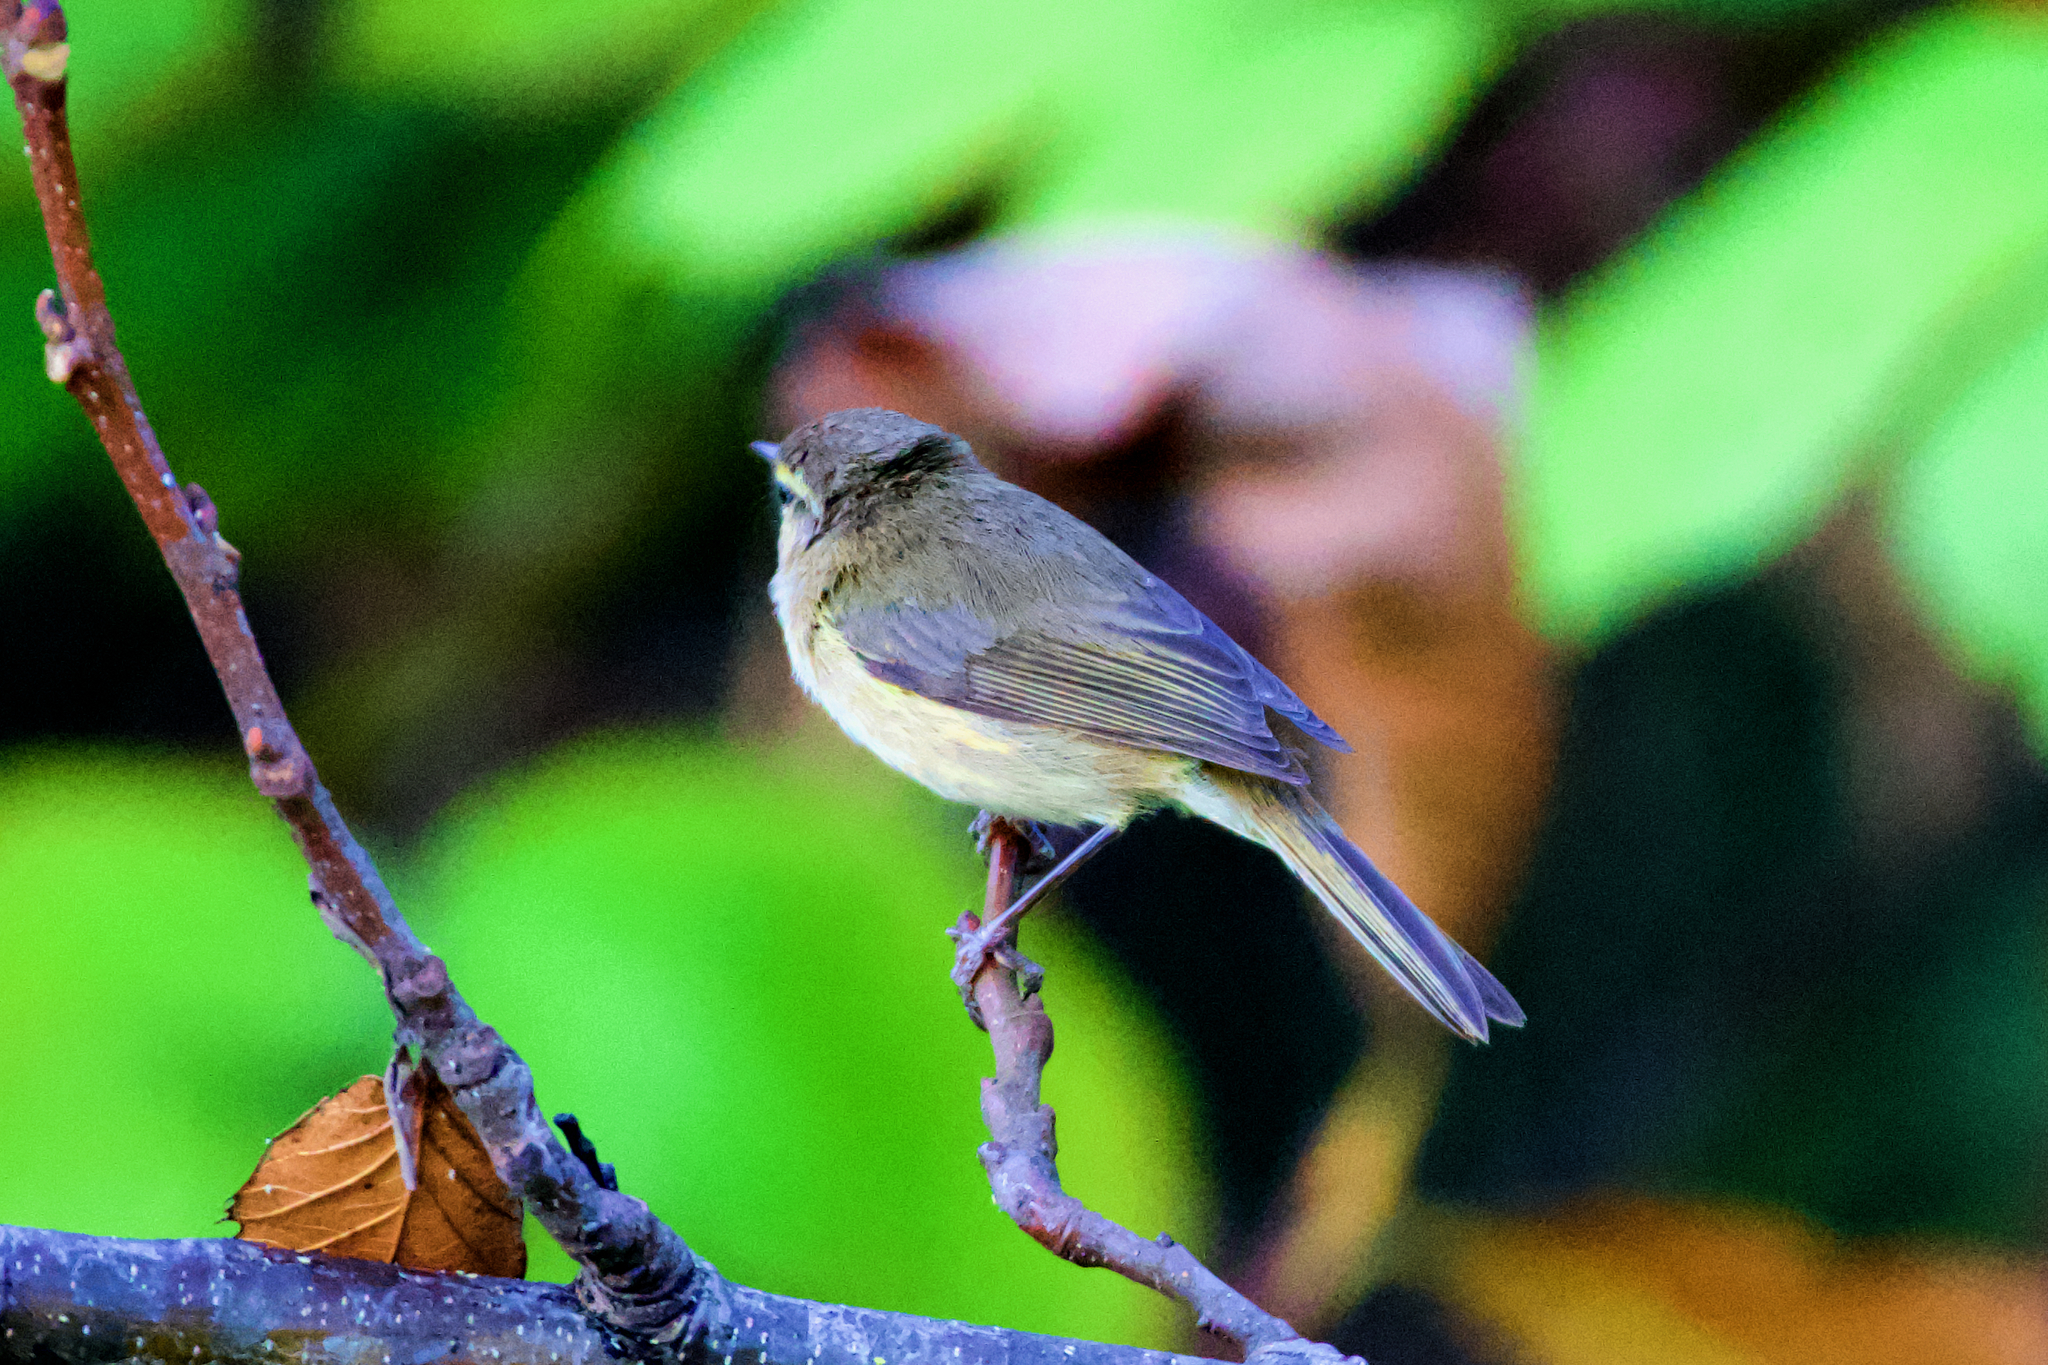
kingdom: Animalia
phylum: Chordata
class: Aves
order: Passeriformes
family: Phylloscopidae
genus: Phylloscopus
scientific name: Phylloscopus canariensis
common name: Canary islands chiffchaff
